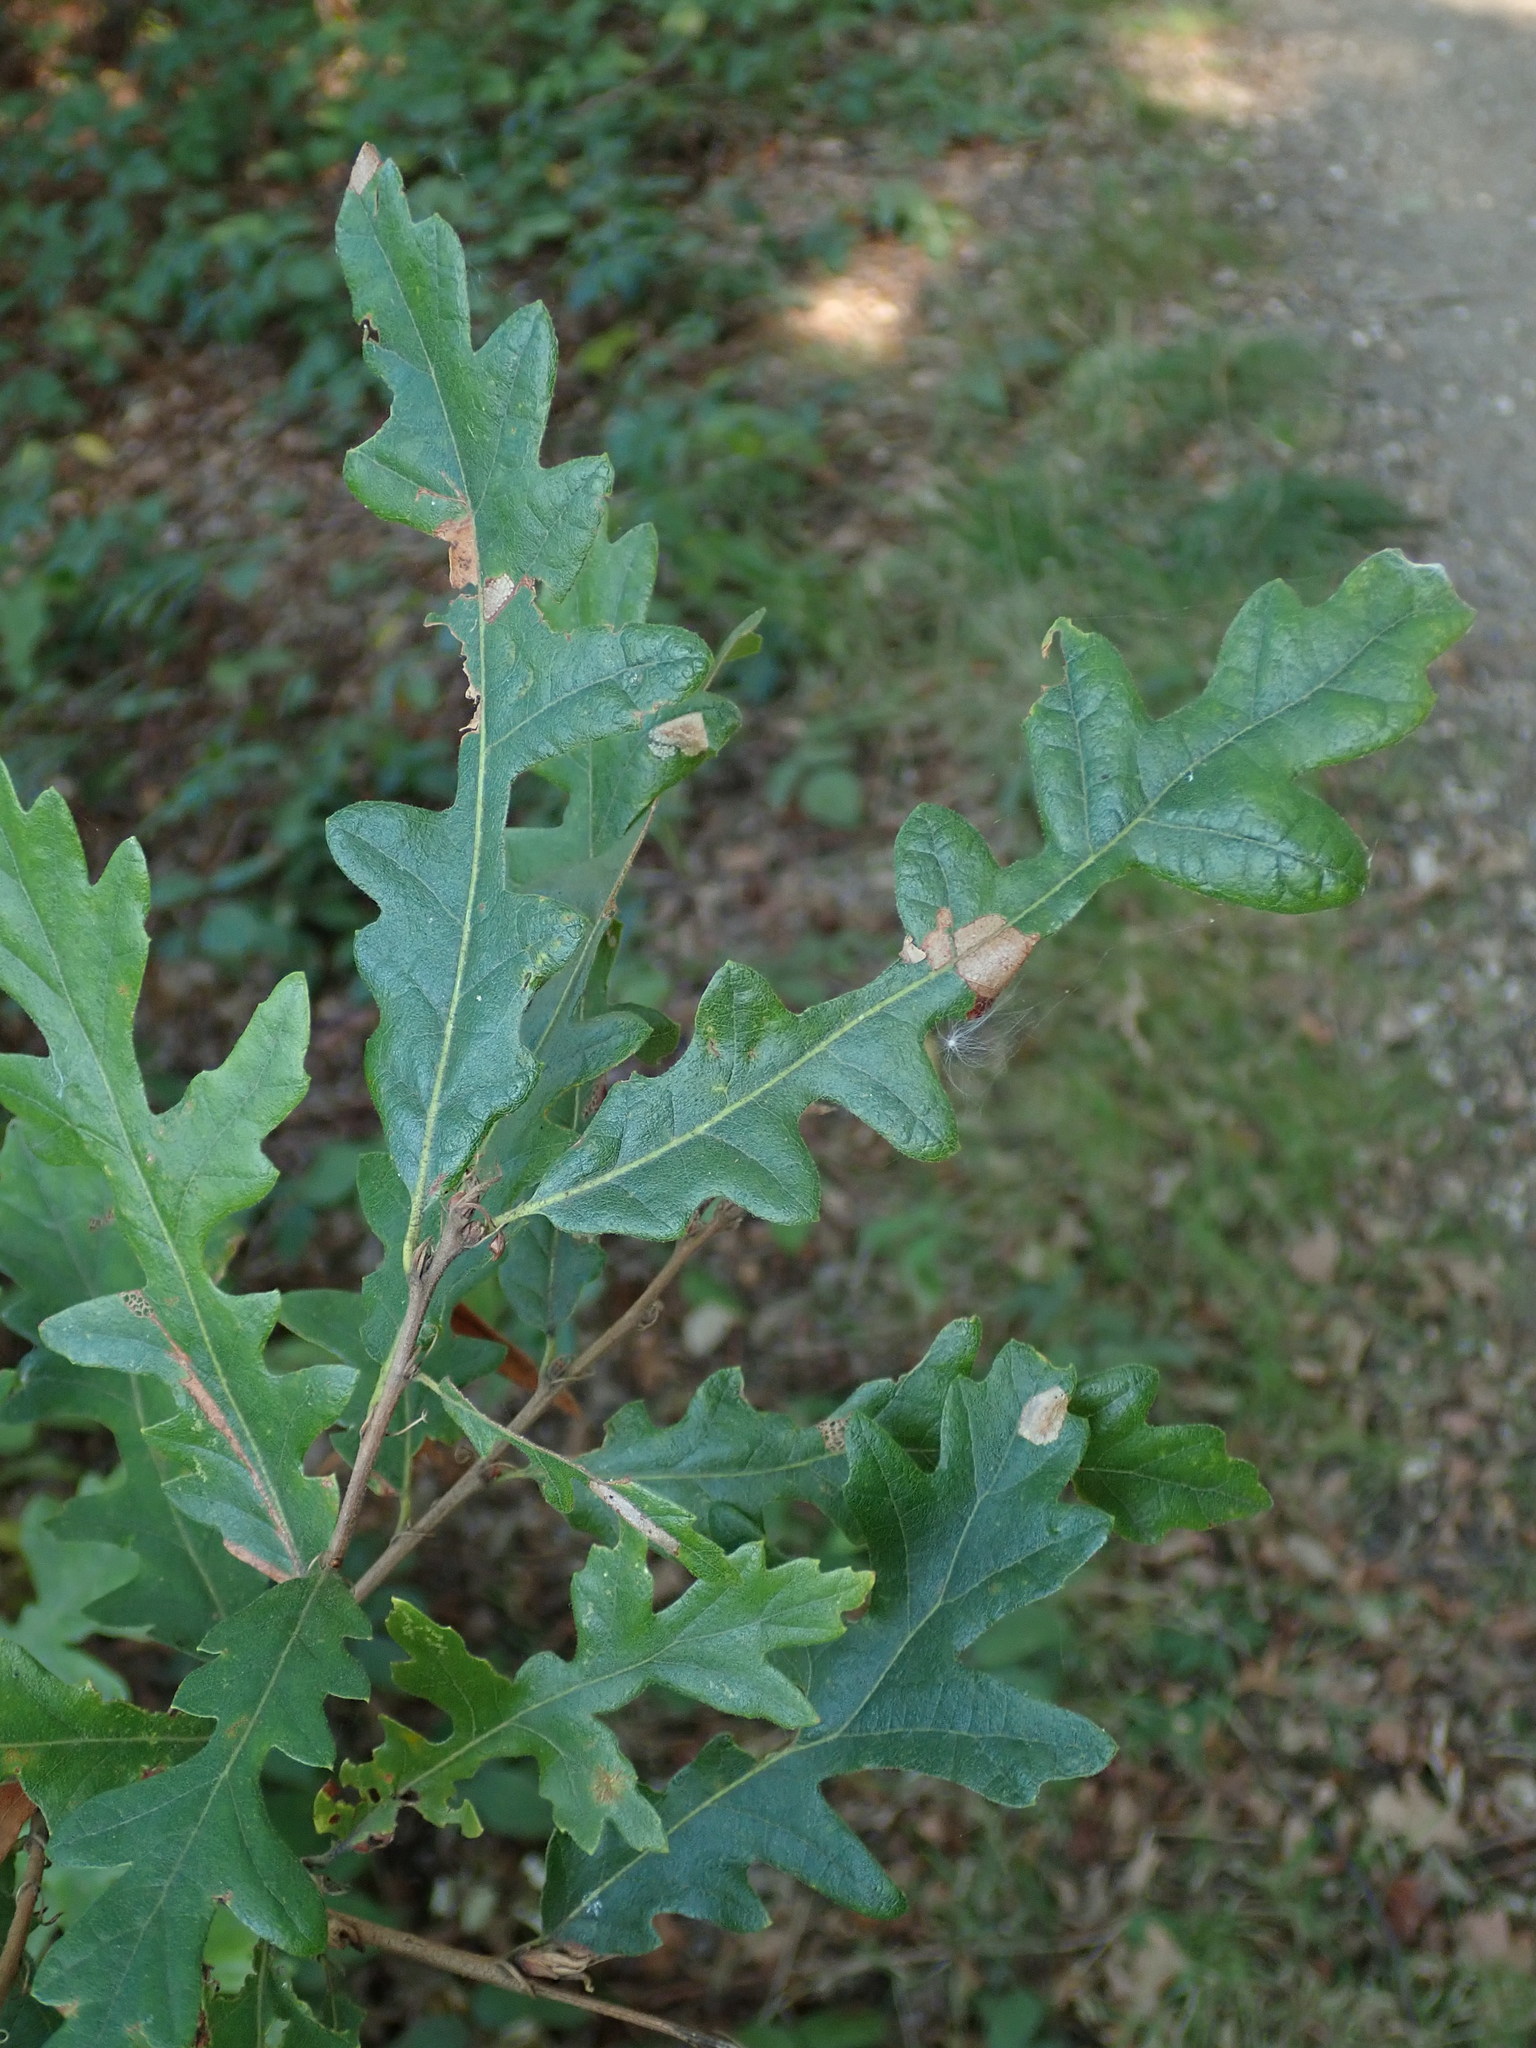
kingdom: Plantae
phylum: Tracheophyta
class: Magnoliopsida
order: Fagales
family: Fagaceae
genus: Quercus
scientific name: Quercus cerris
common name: Turkey oak
